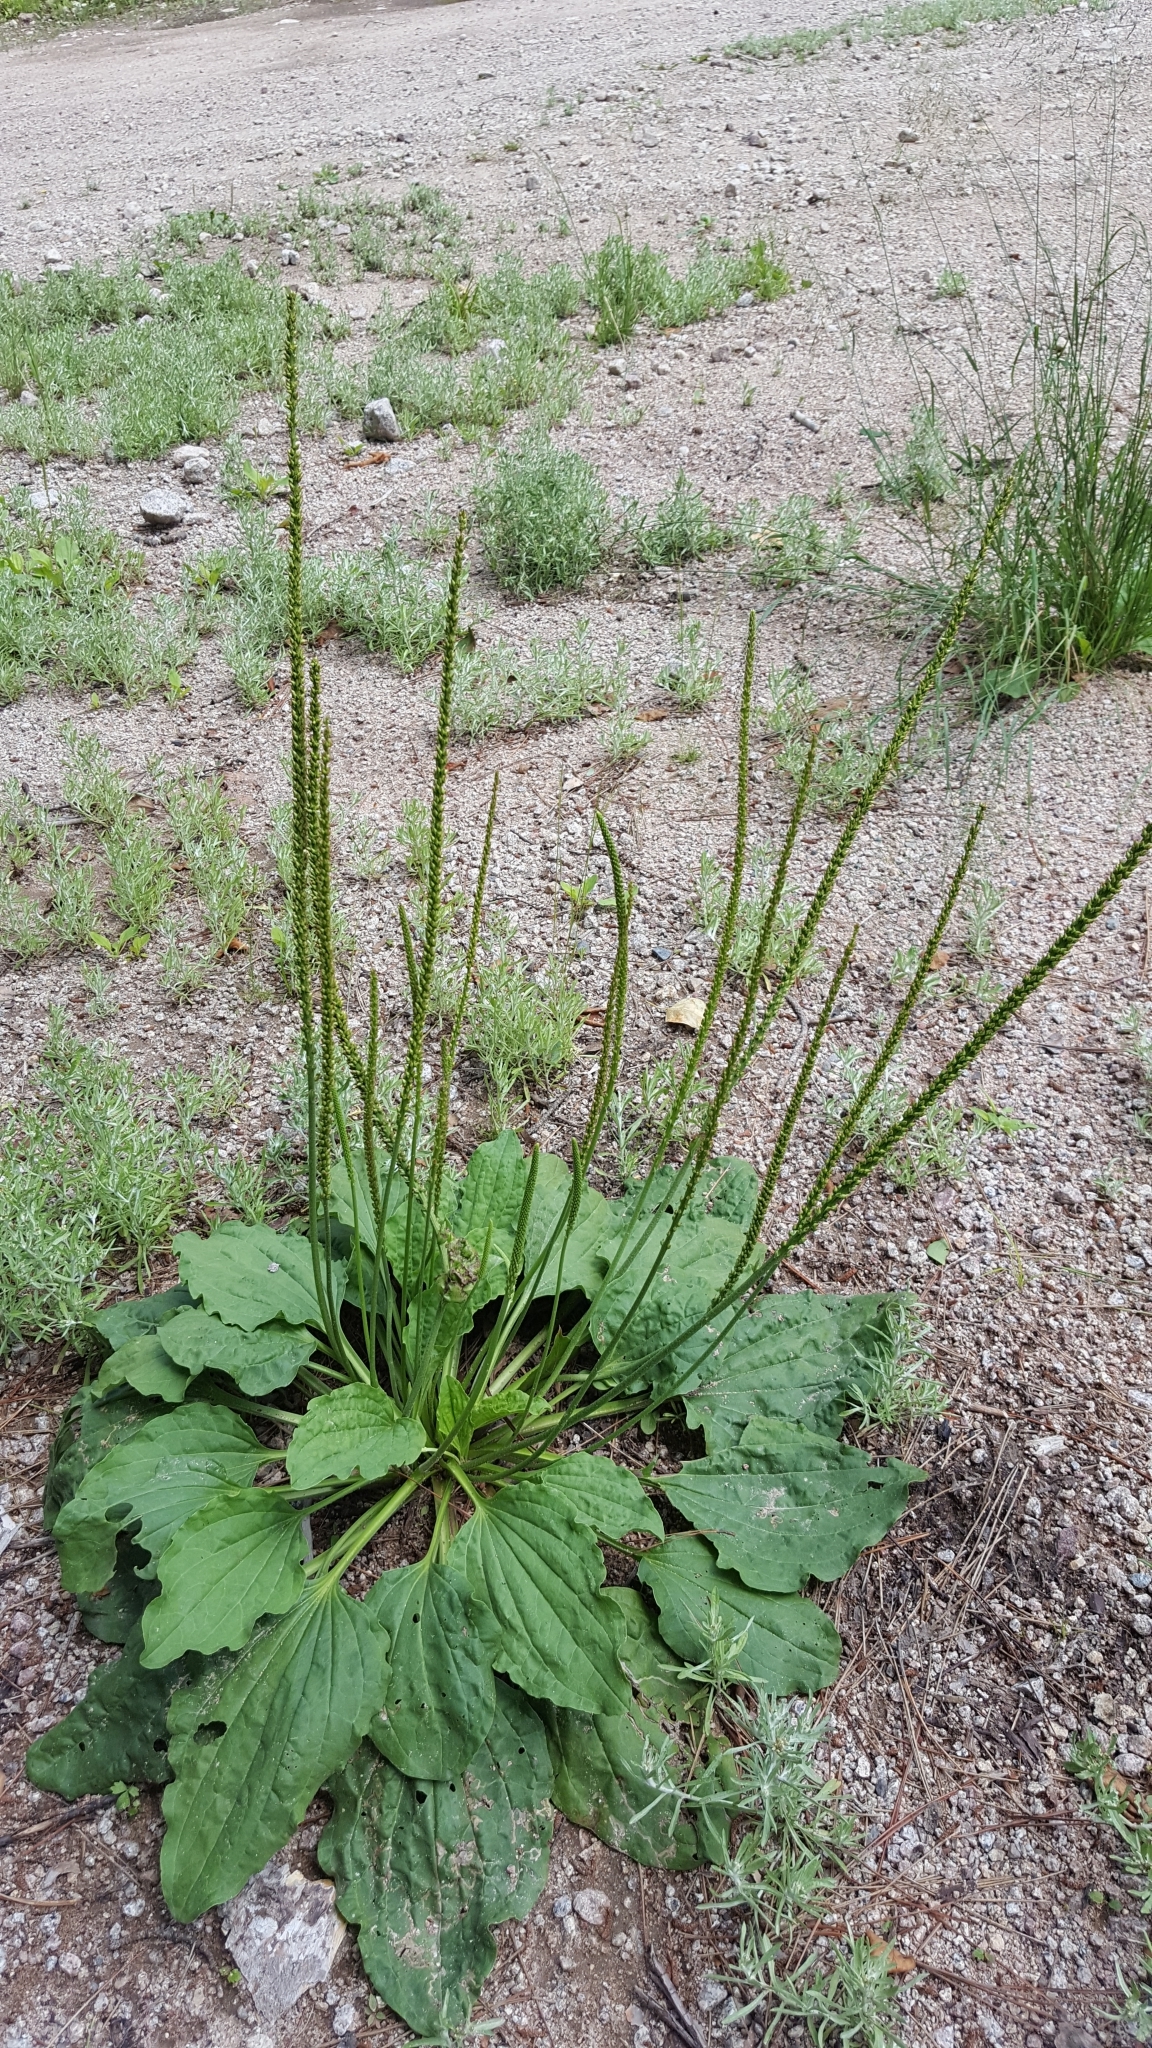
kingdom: Plantae
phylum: Tracheophyta
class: Magnoliopsida
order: Lamiales
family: Plantaginaceae
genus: Plantago
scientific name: Plantago major
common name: Common plantain
